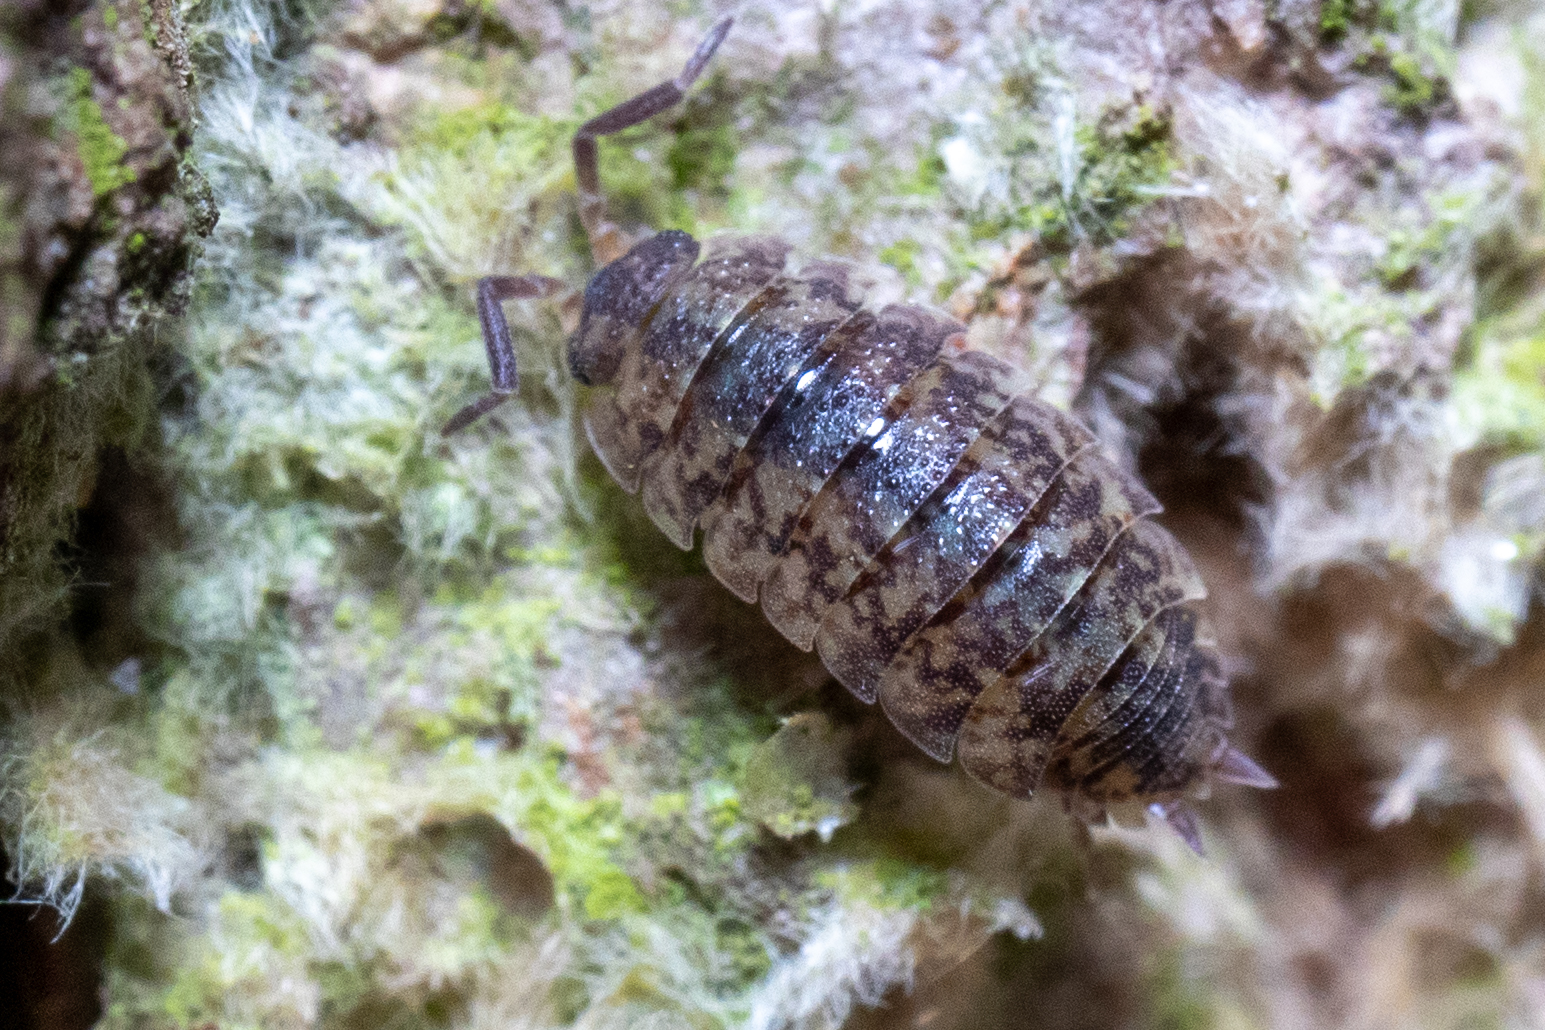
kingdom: Animalia
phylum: Arthropoda
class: Malacostraca
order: Isopoda
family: Porcellionidae
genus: Porcellio
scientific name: Porcellio scaber
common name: Common rough woodlouse
